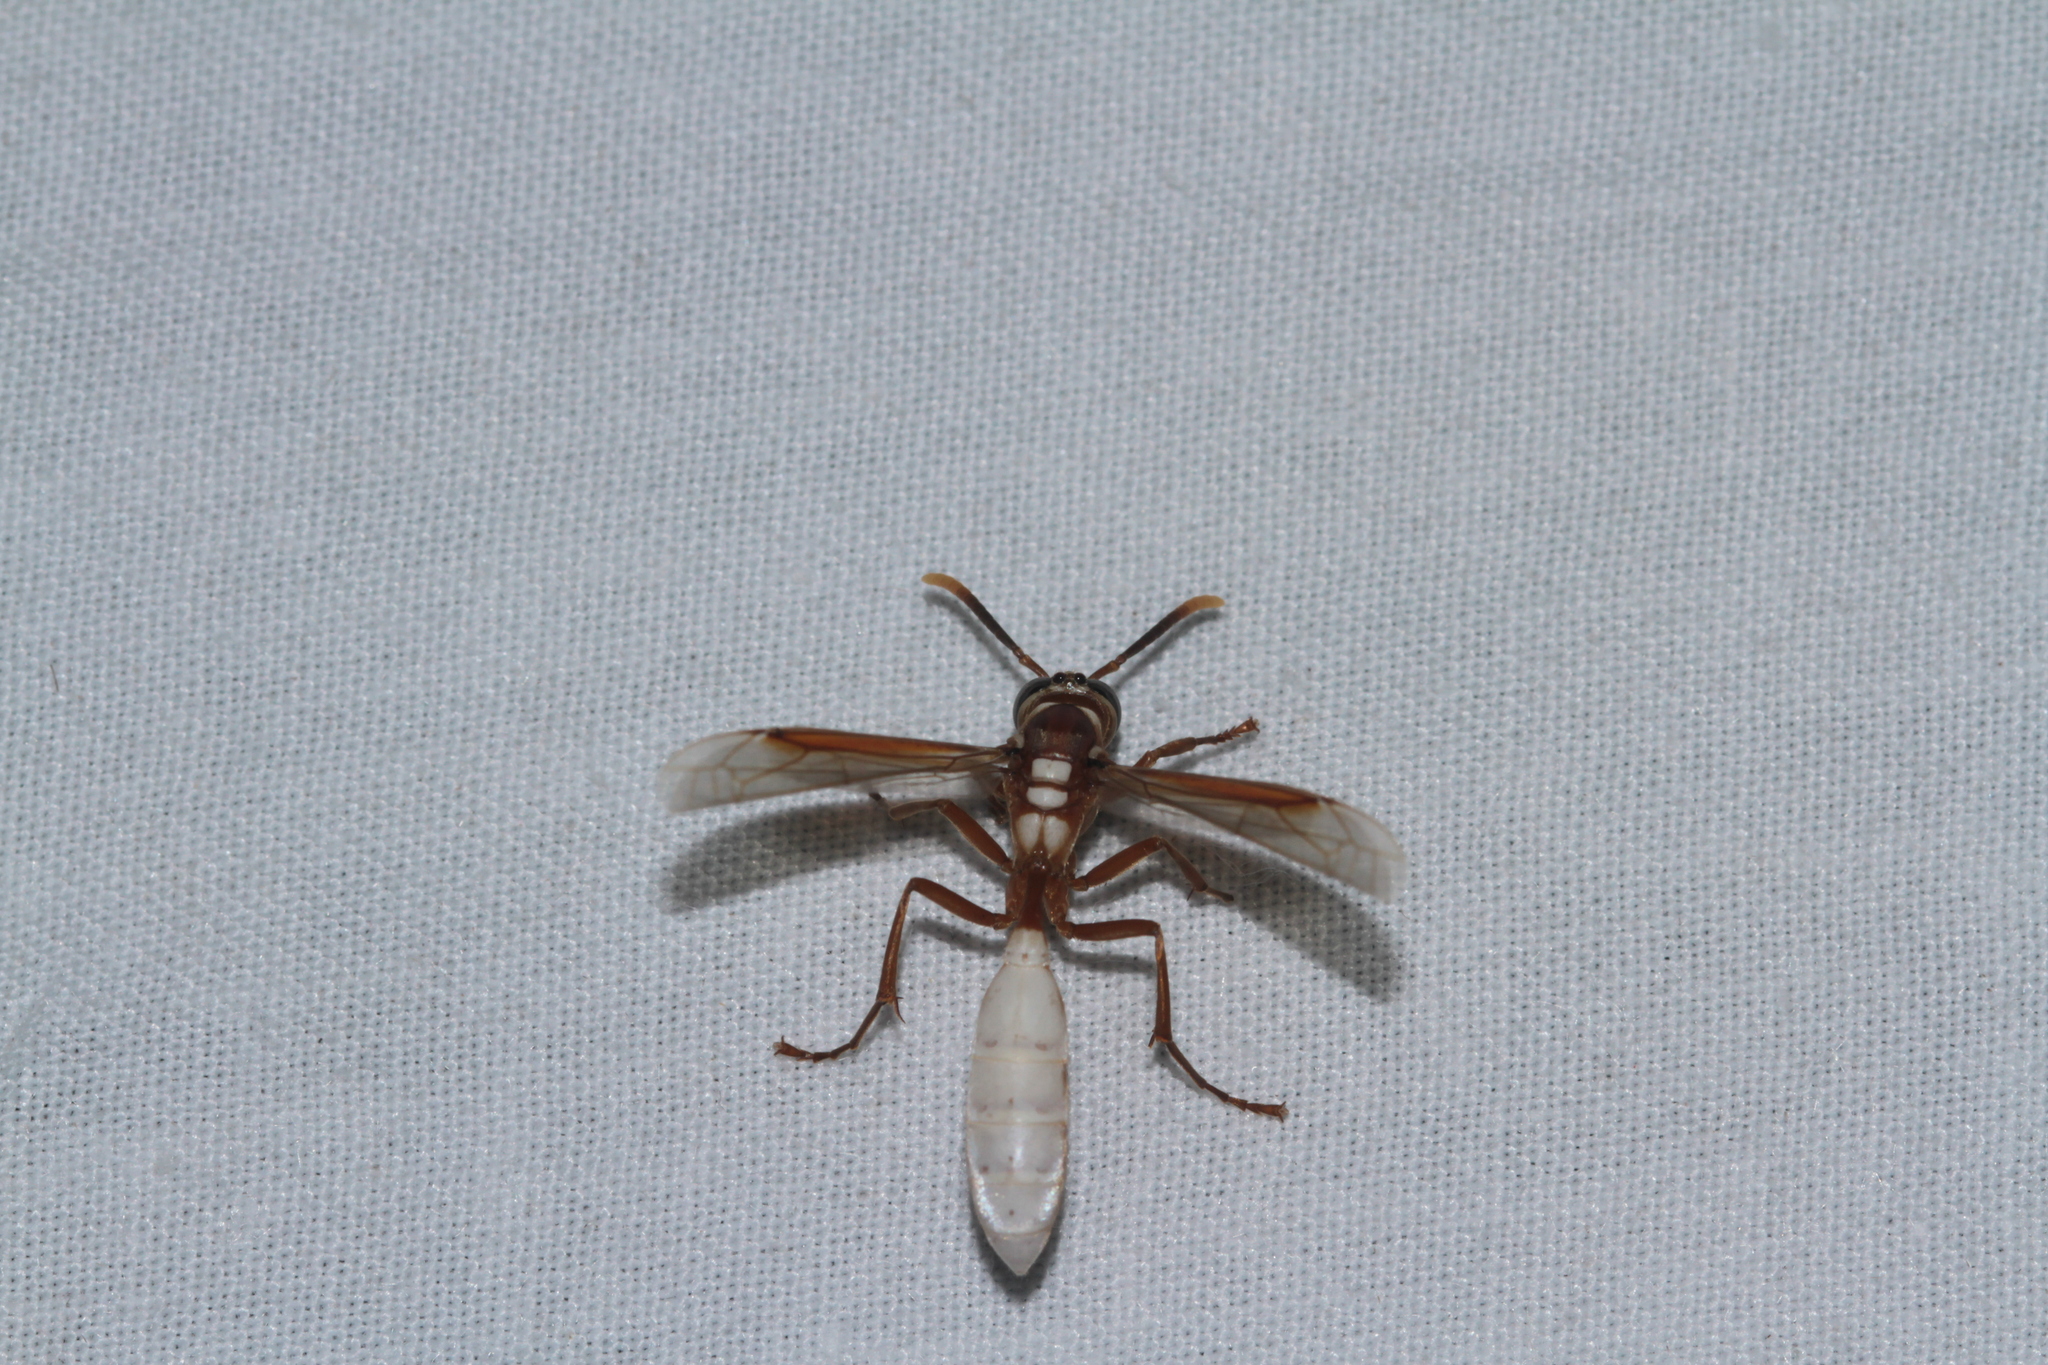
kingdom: Animalia
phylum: Arthropoda
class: Insecta
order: Hymenoptera
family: Vespidae
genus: Apoica
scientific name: Apoica gelida
